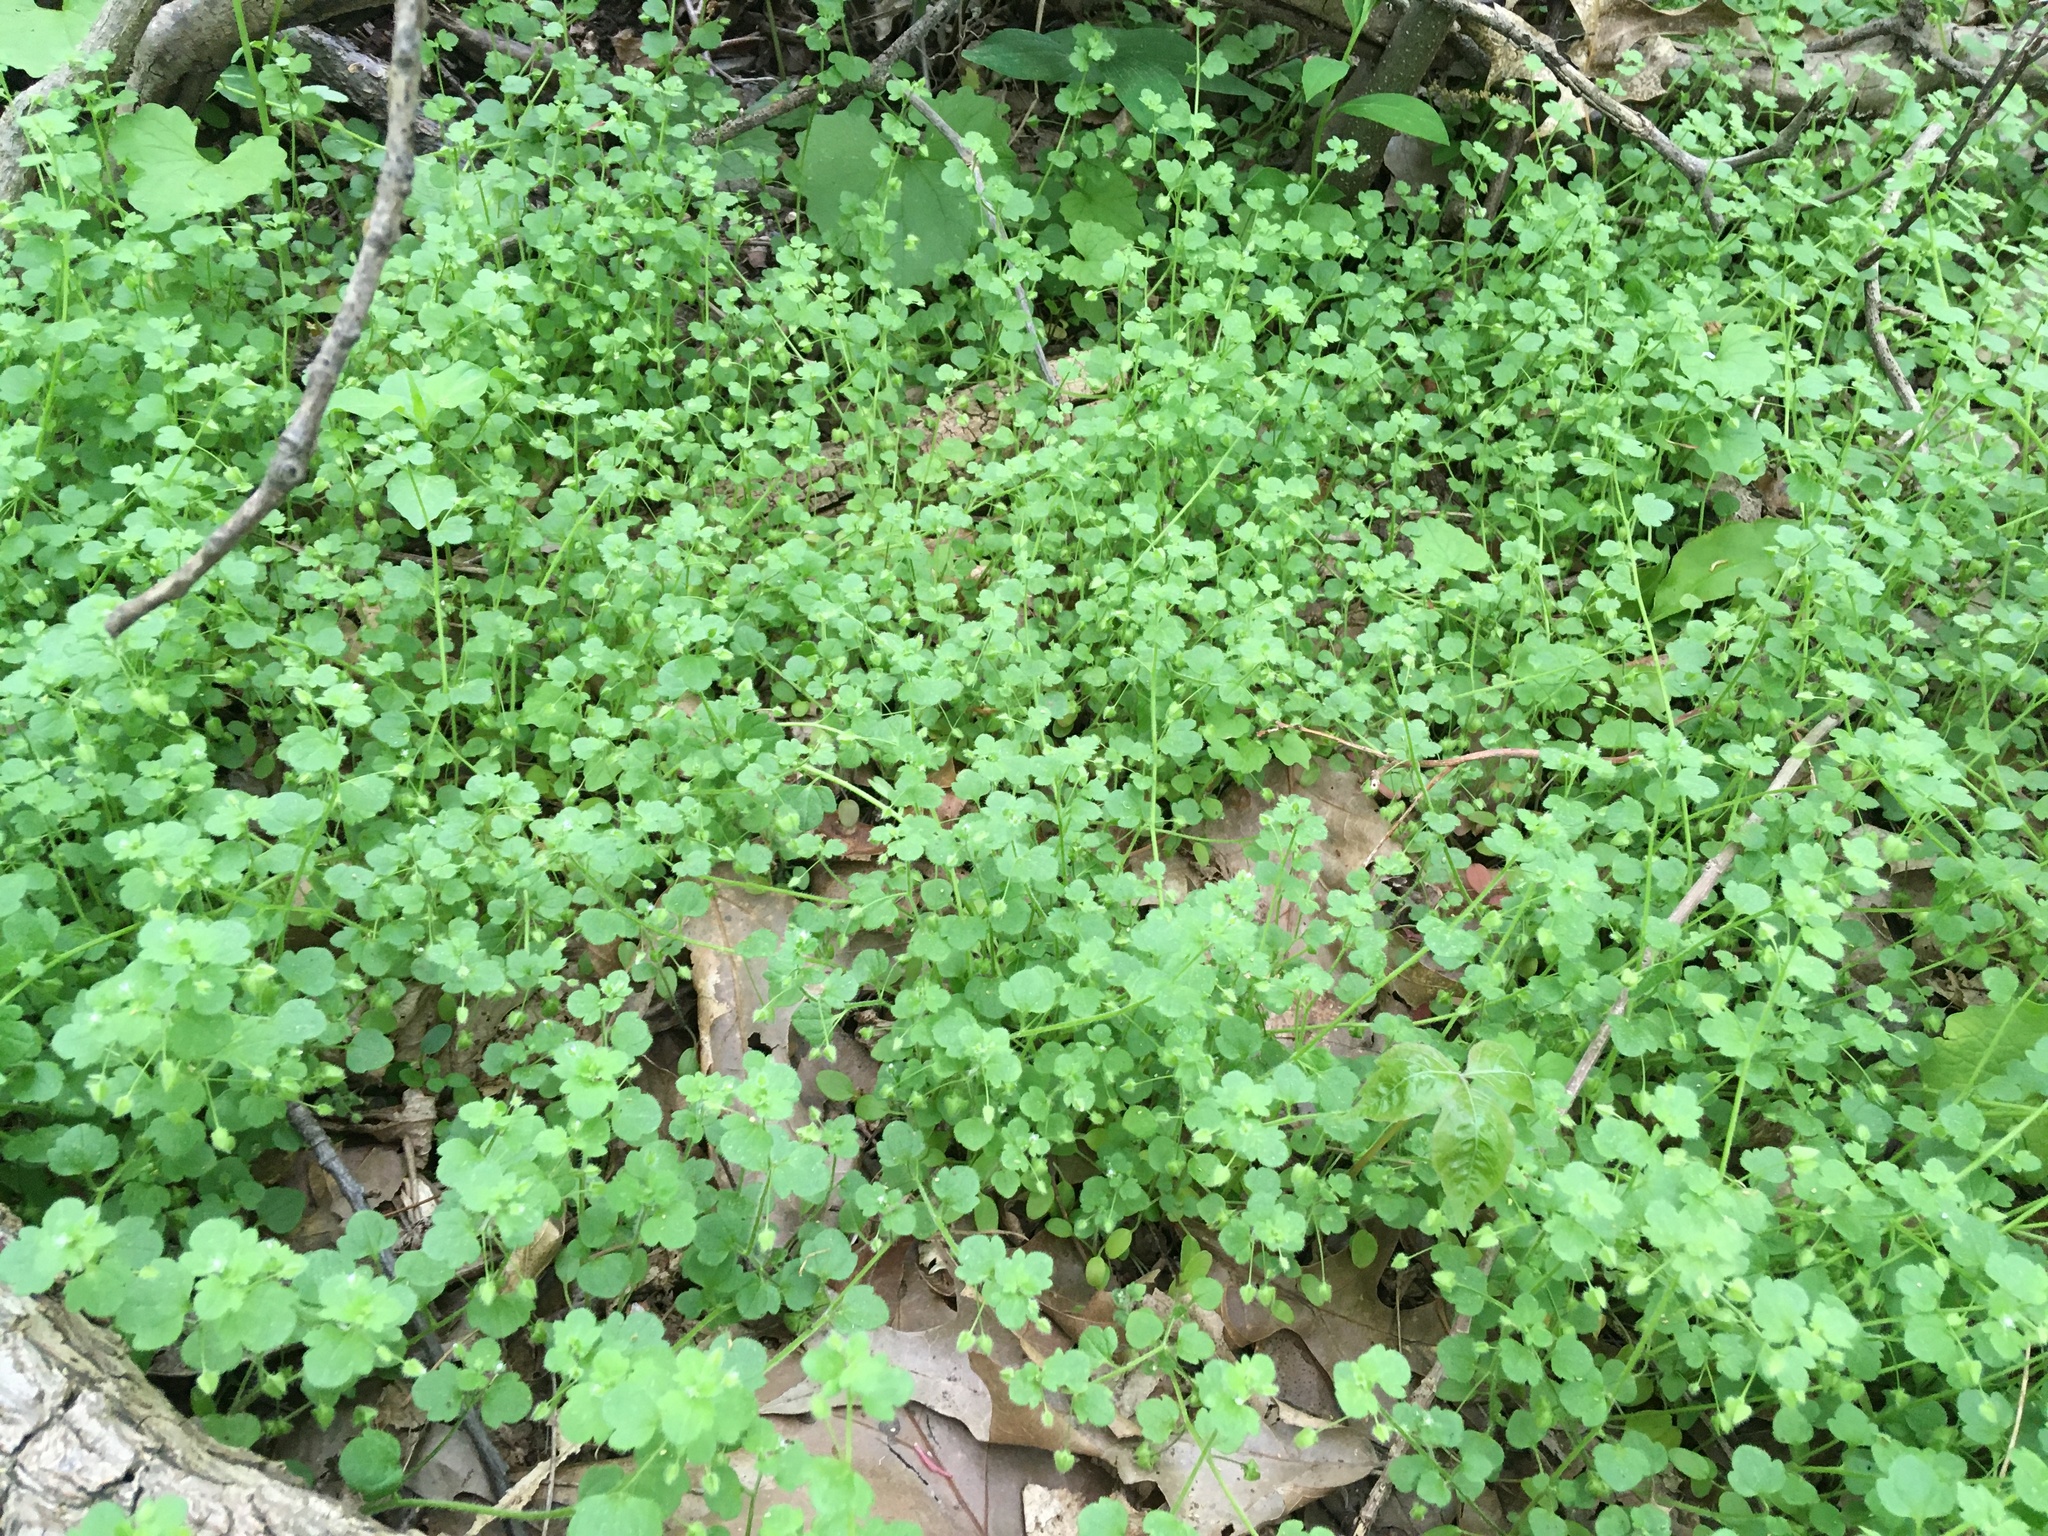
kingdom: Plantae
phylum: Tracheophyta
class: Magnoliopsida
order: Lamiales
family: Plantaginaceae
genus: Veronica
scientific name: Veronica hederifolia
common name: Ivy-leaved speedwell
